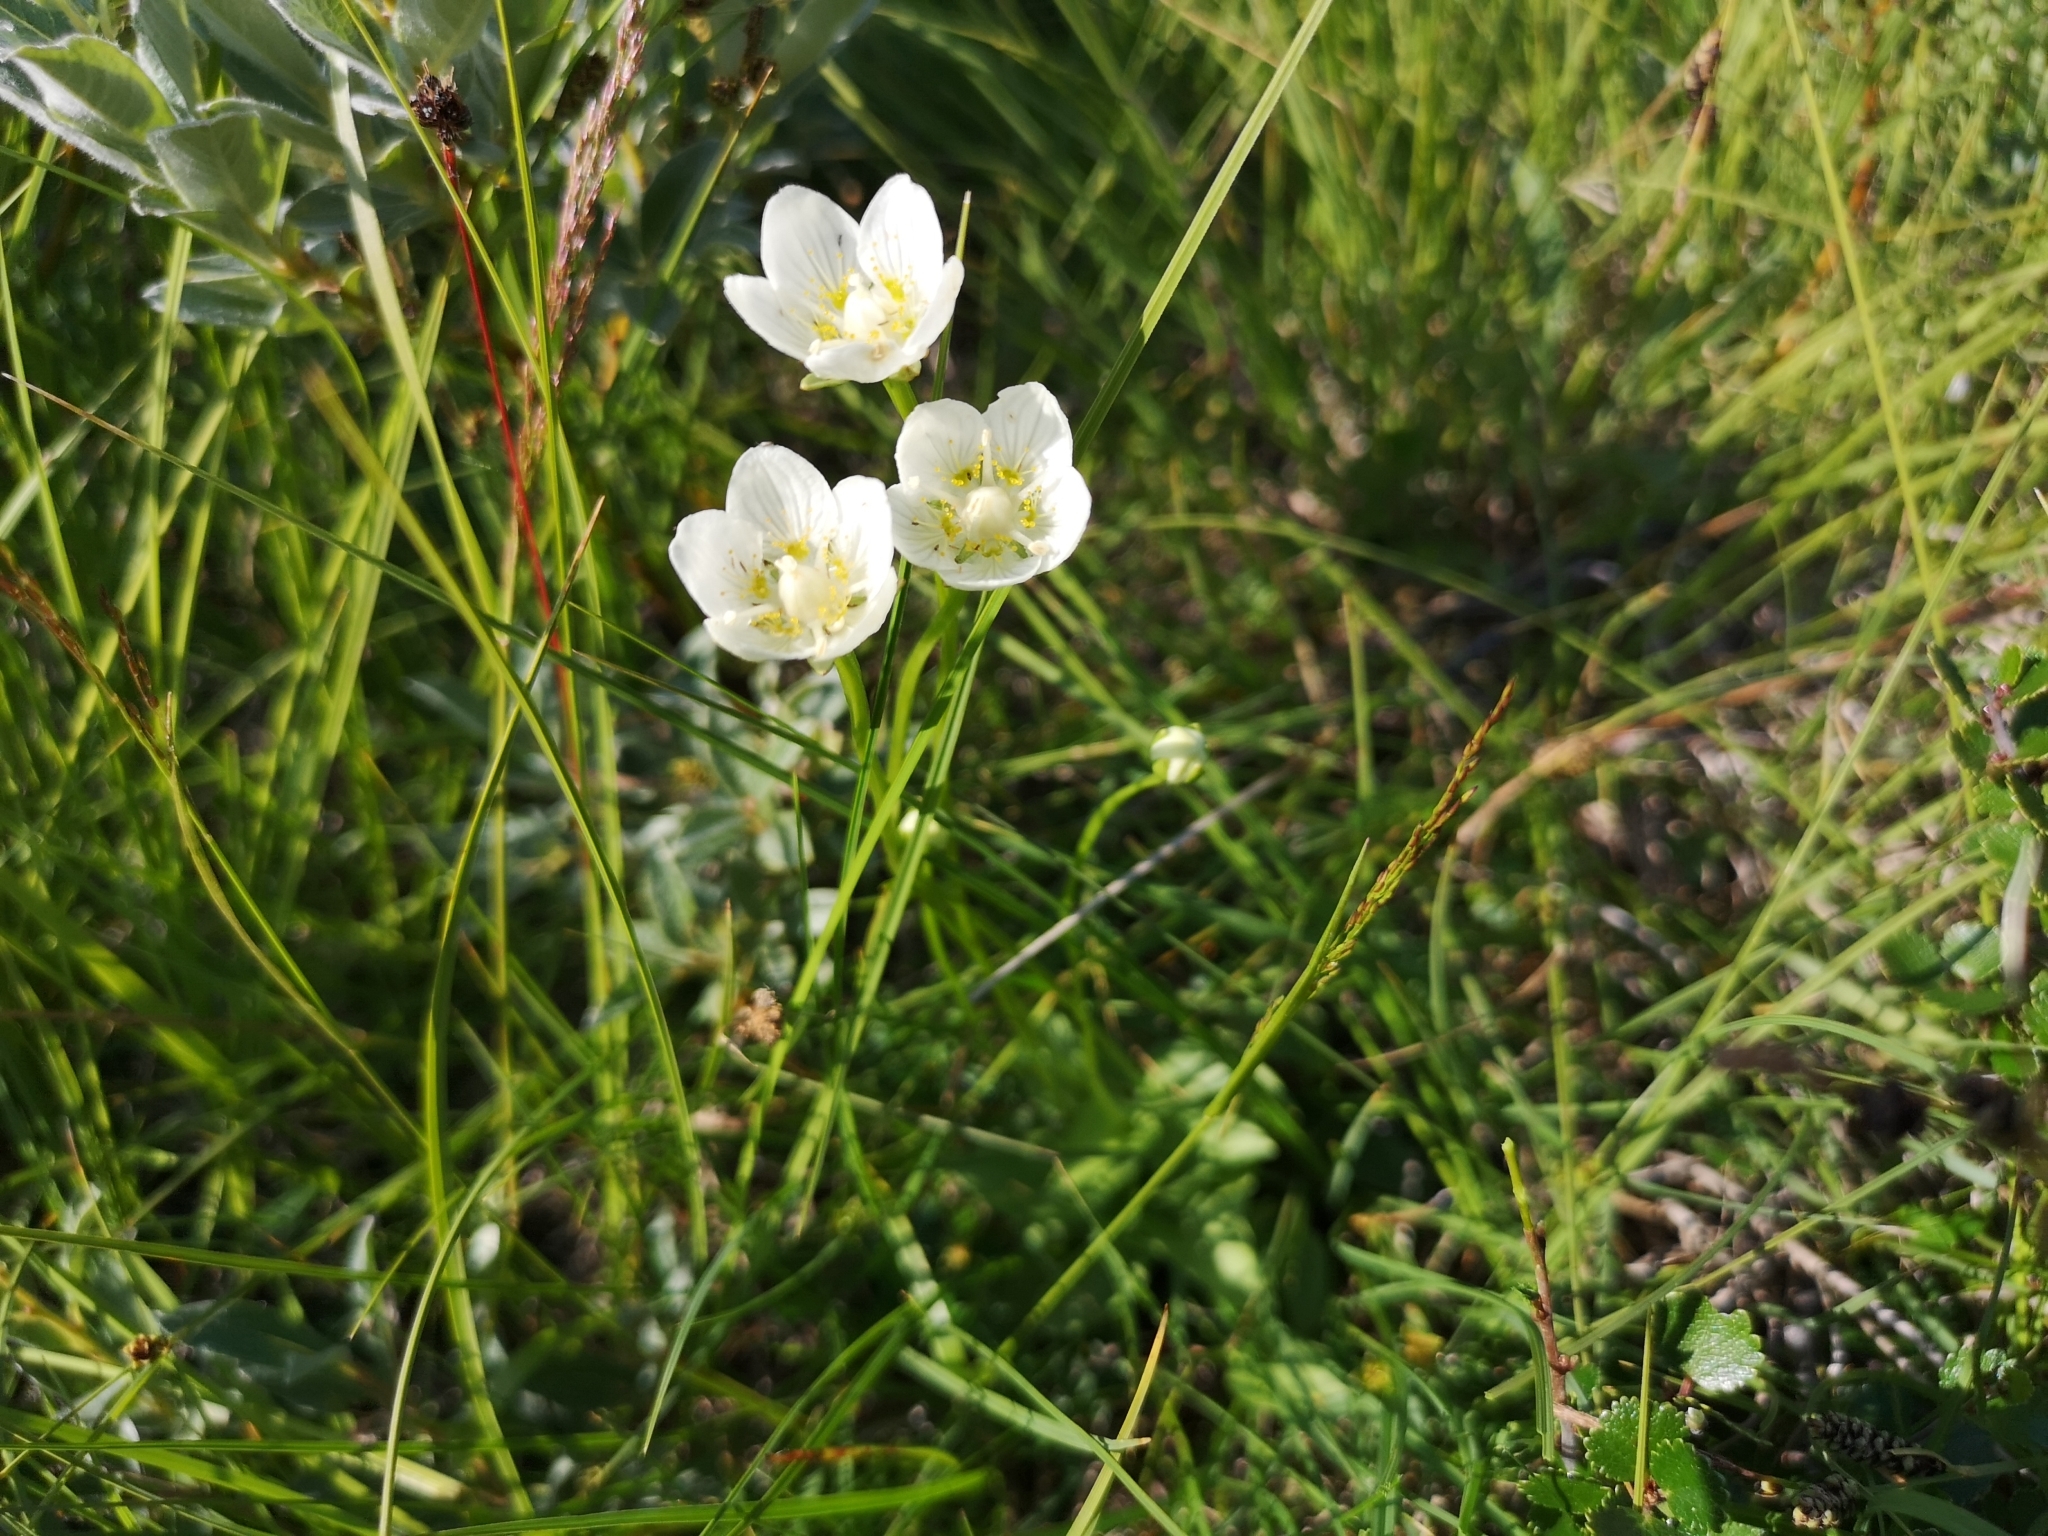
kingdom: Plantae
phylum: Tracheophyta
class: Magnoliopsida
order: Celastrales
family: Parnassiaceae
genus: Parnassia
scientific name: Parnassia palustris
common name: Grass-of-parnassus
